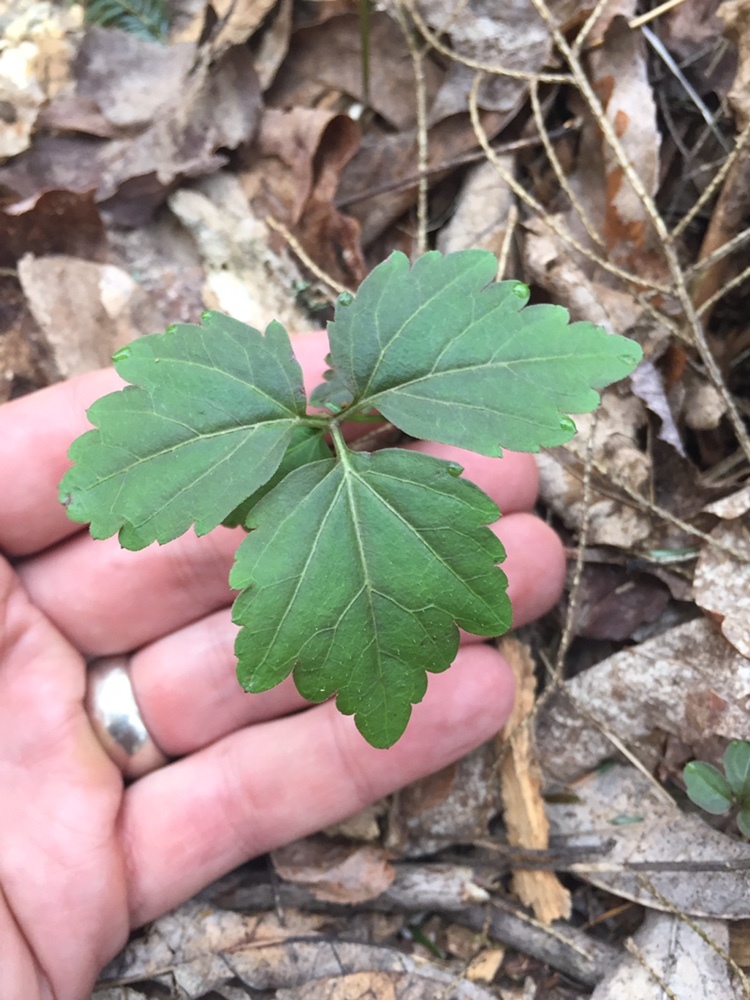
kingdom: Plantae
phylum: Tracheophyta
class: Magnoliopsida
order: Brassicales
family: Brassicaceae
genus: Cardamine
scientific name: Cardamine diphylla
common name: Broad-leaved toothwort
